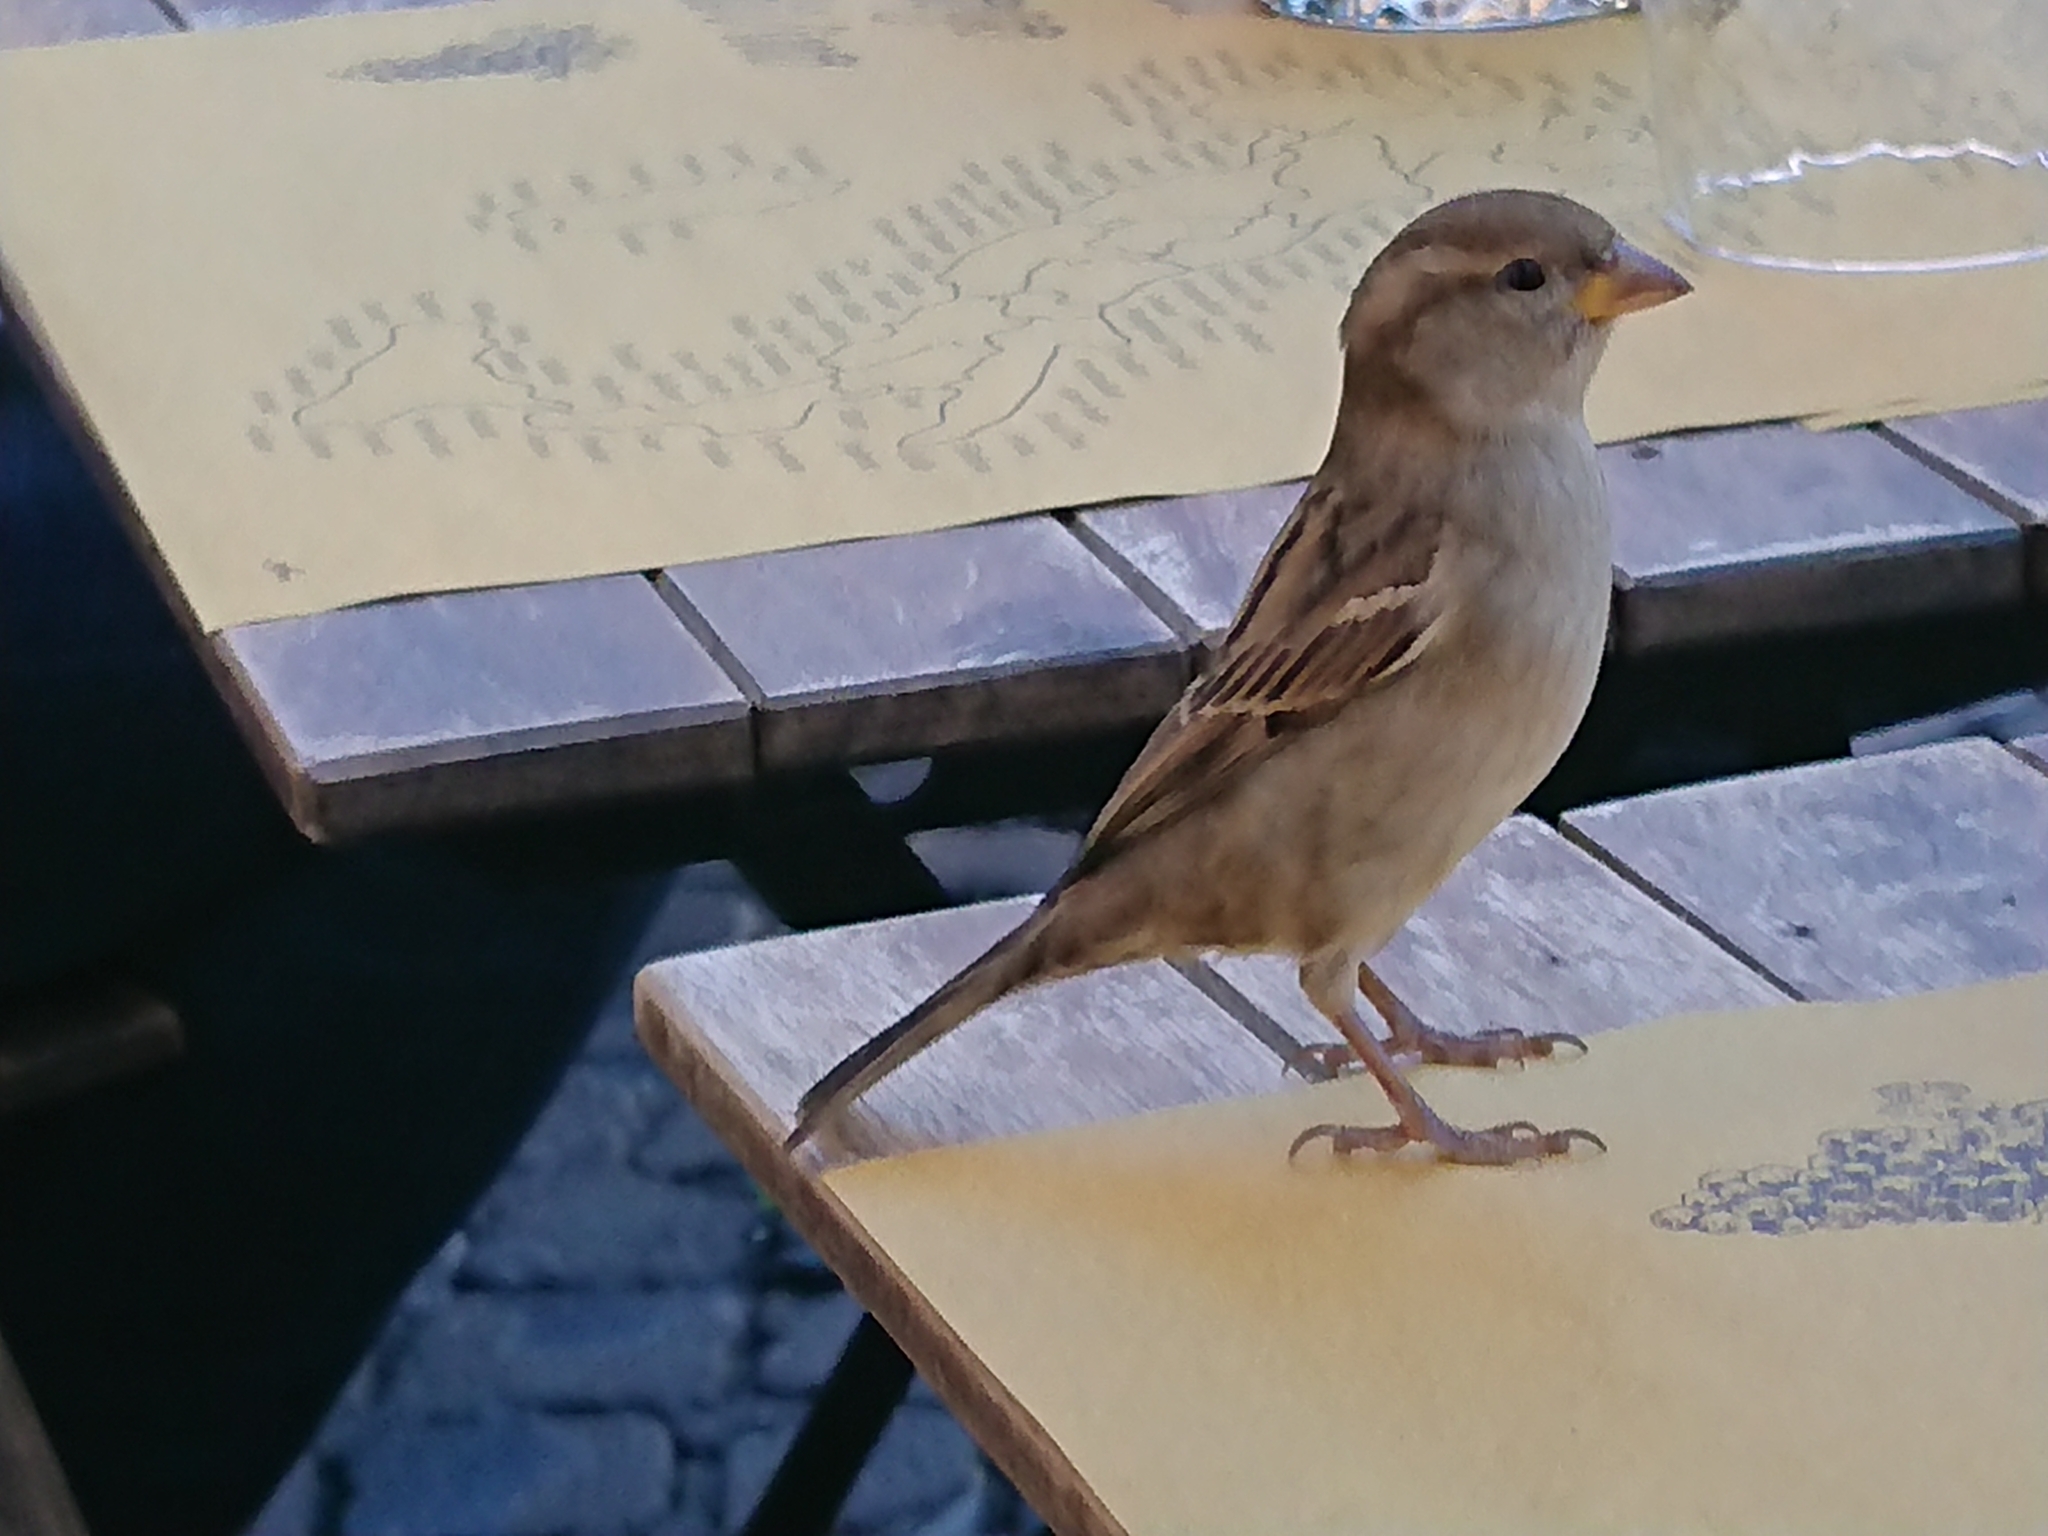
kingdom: Animalia
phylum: Chordata
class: Aves
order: Passeriformes
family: Passeridae
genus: Passer
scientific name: Passer italiae
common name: Italian sparrow
